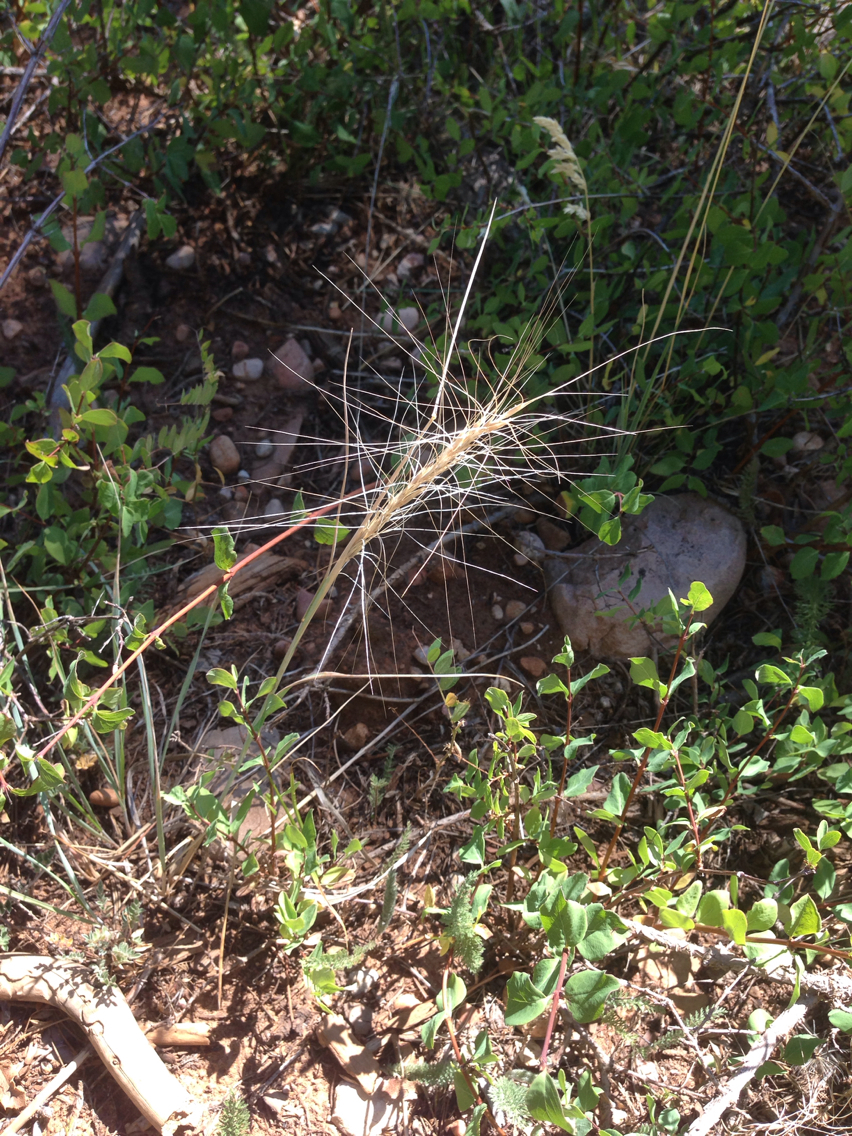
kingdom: Plantae
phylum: Tracheophyta
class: Liliopsida
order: Poales
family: Poaceae
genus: Elymus
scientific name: Elymus elymoides
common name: Bottlebrush squirreltail
